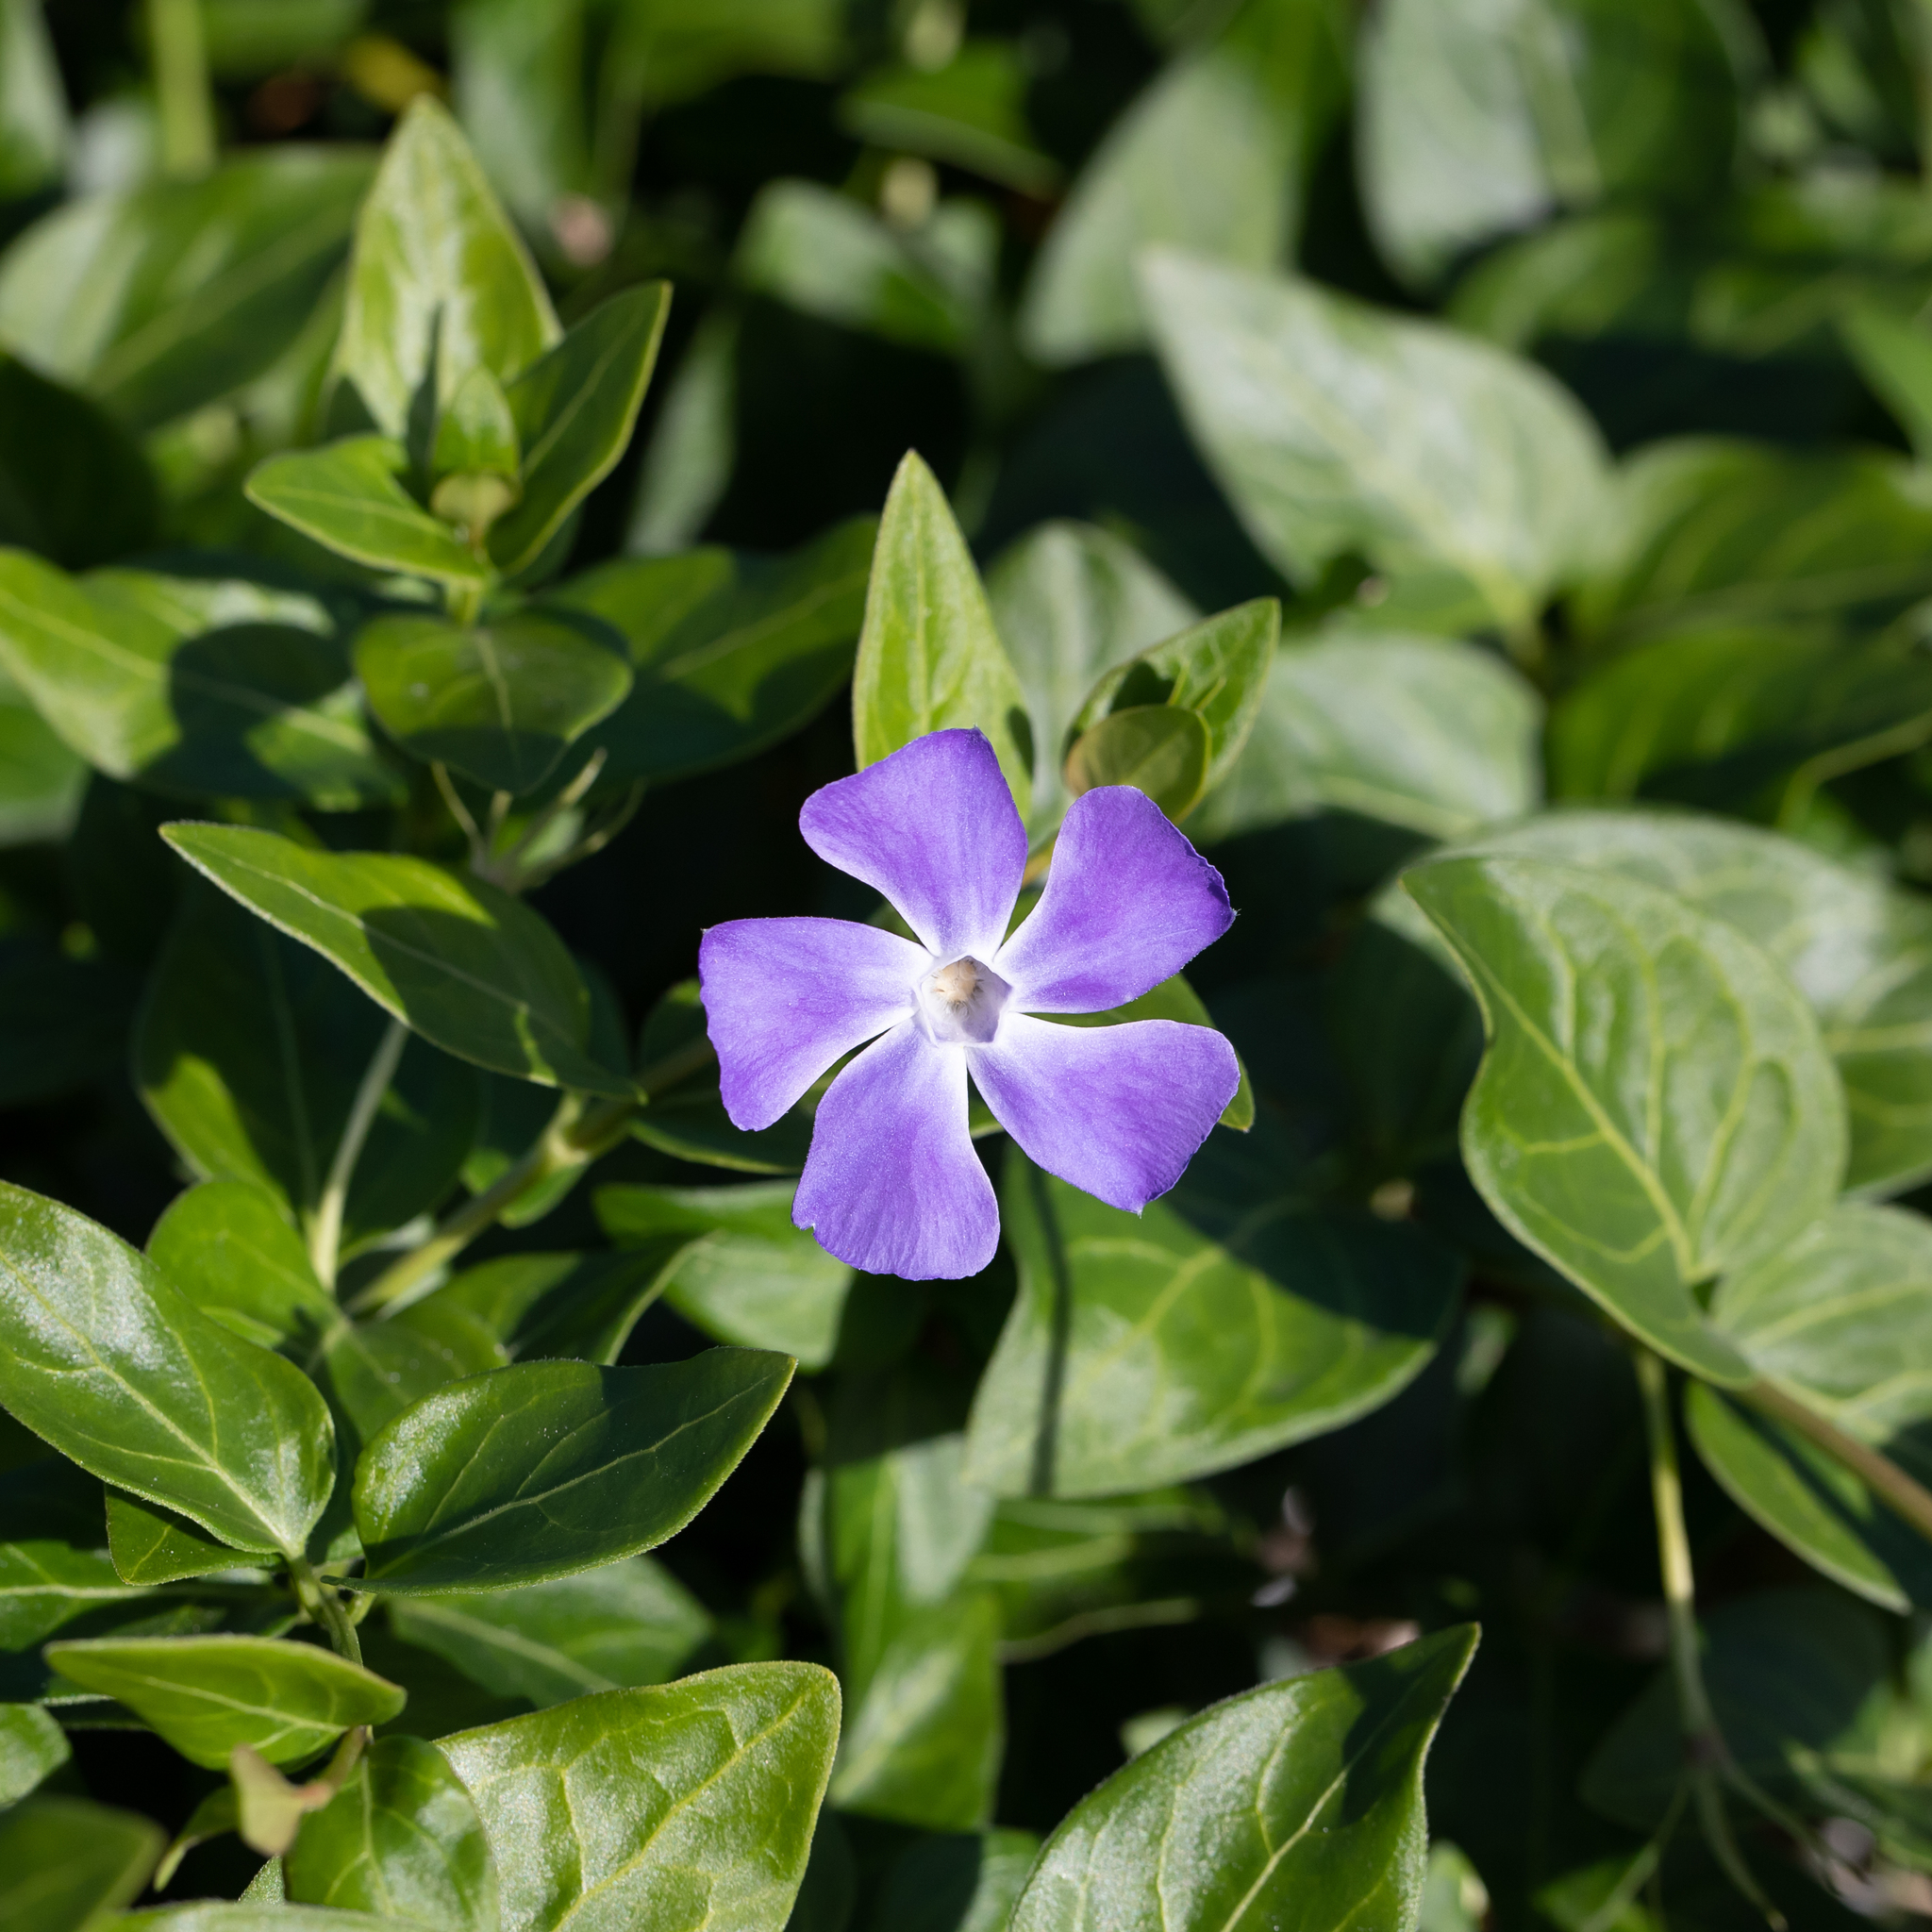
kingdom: Plantae
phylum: Tracheophyta
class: Magnoliopsida
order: Gentianales
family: Apocynaceae
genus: Vinca
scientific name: Vinca major
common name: Greater periwinkle
